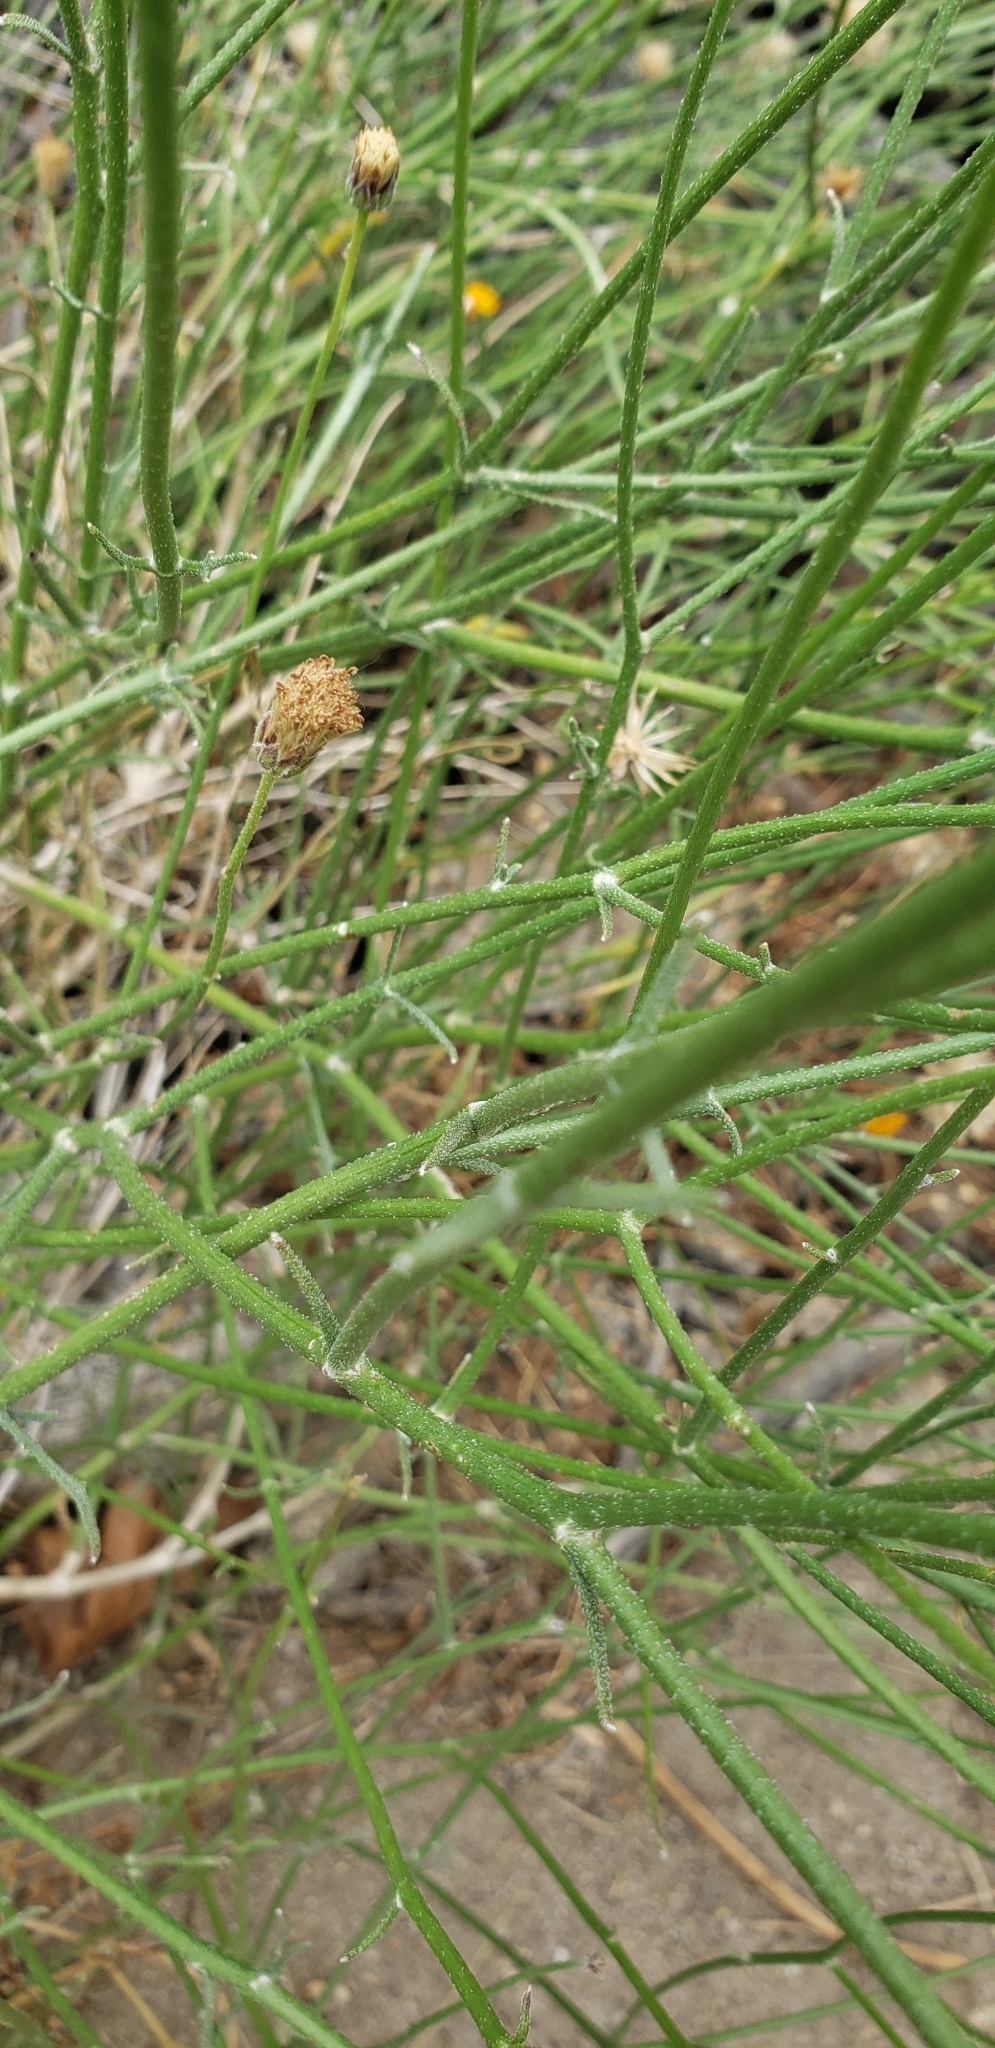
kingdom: Plantae
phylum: Tracheophyta
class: Magnoliopsida
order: Asterales
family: Asteraceae
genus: Bebbia
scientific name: Bebbia juncea
